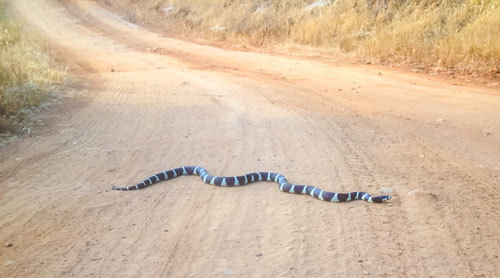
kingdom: Animalia
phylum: Chordata
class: Squamata
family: Colubridae
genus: Lampropeltis
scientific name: Lampropeltis californiae
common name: California kingsnake
